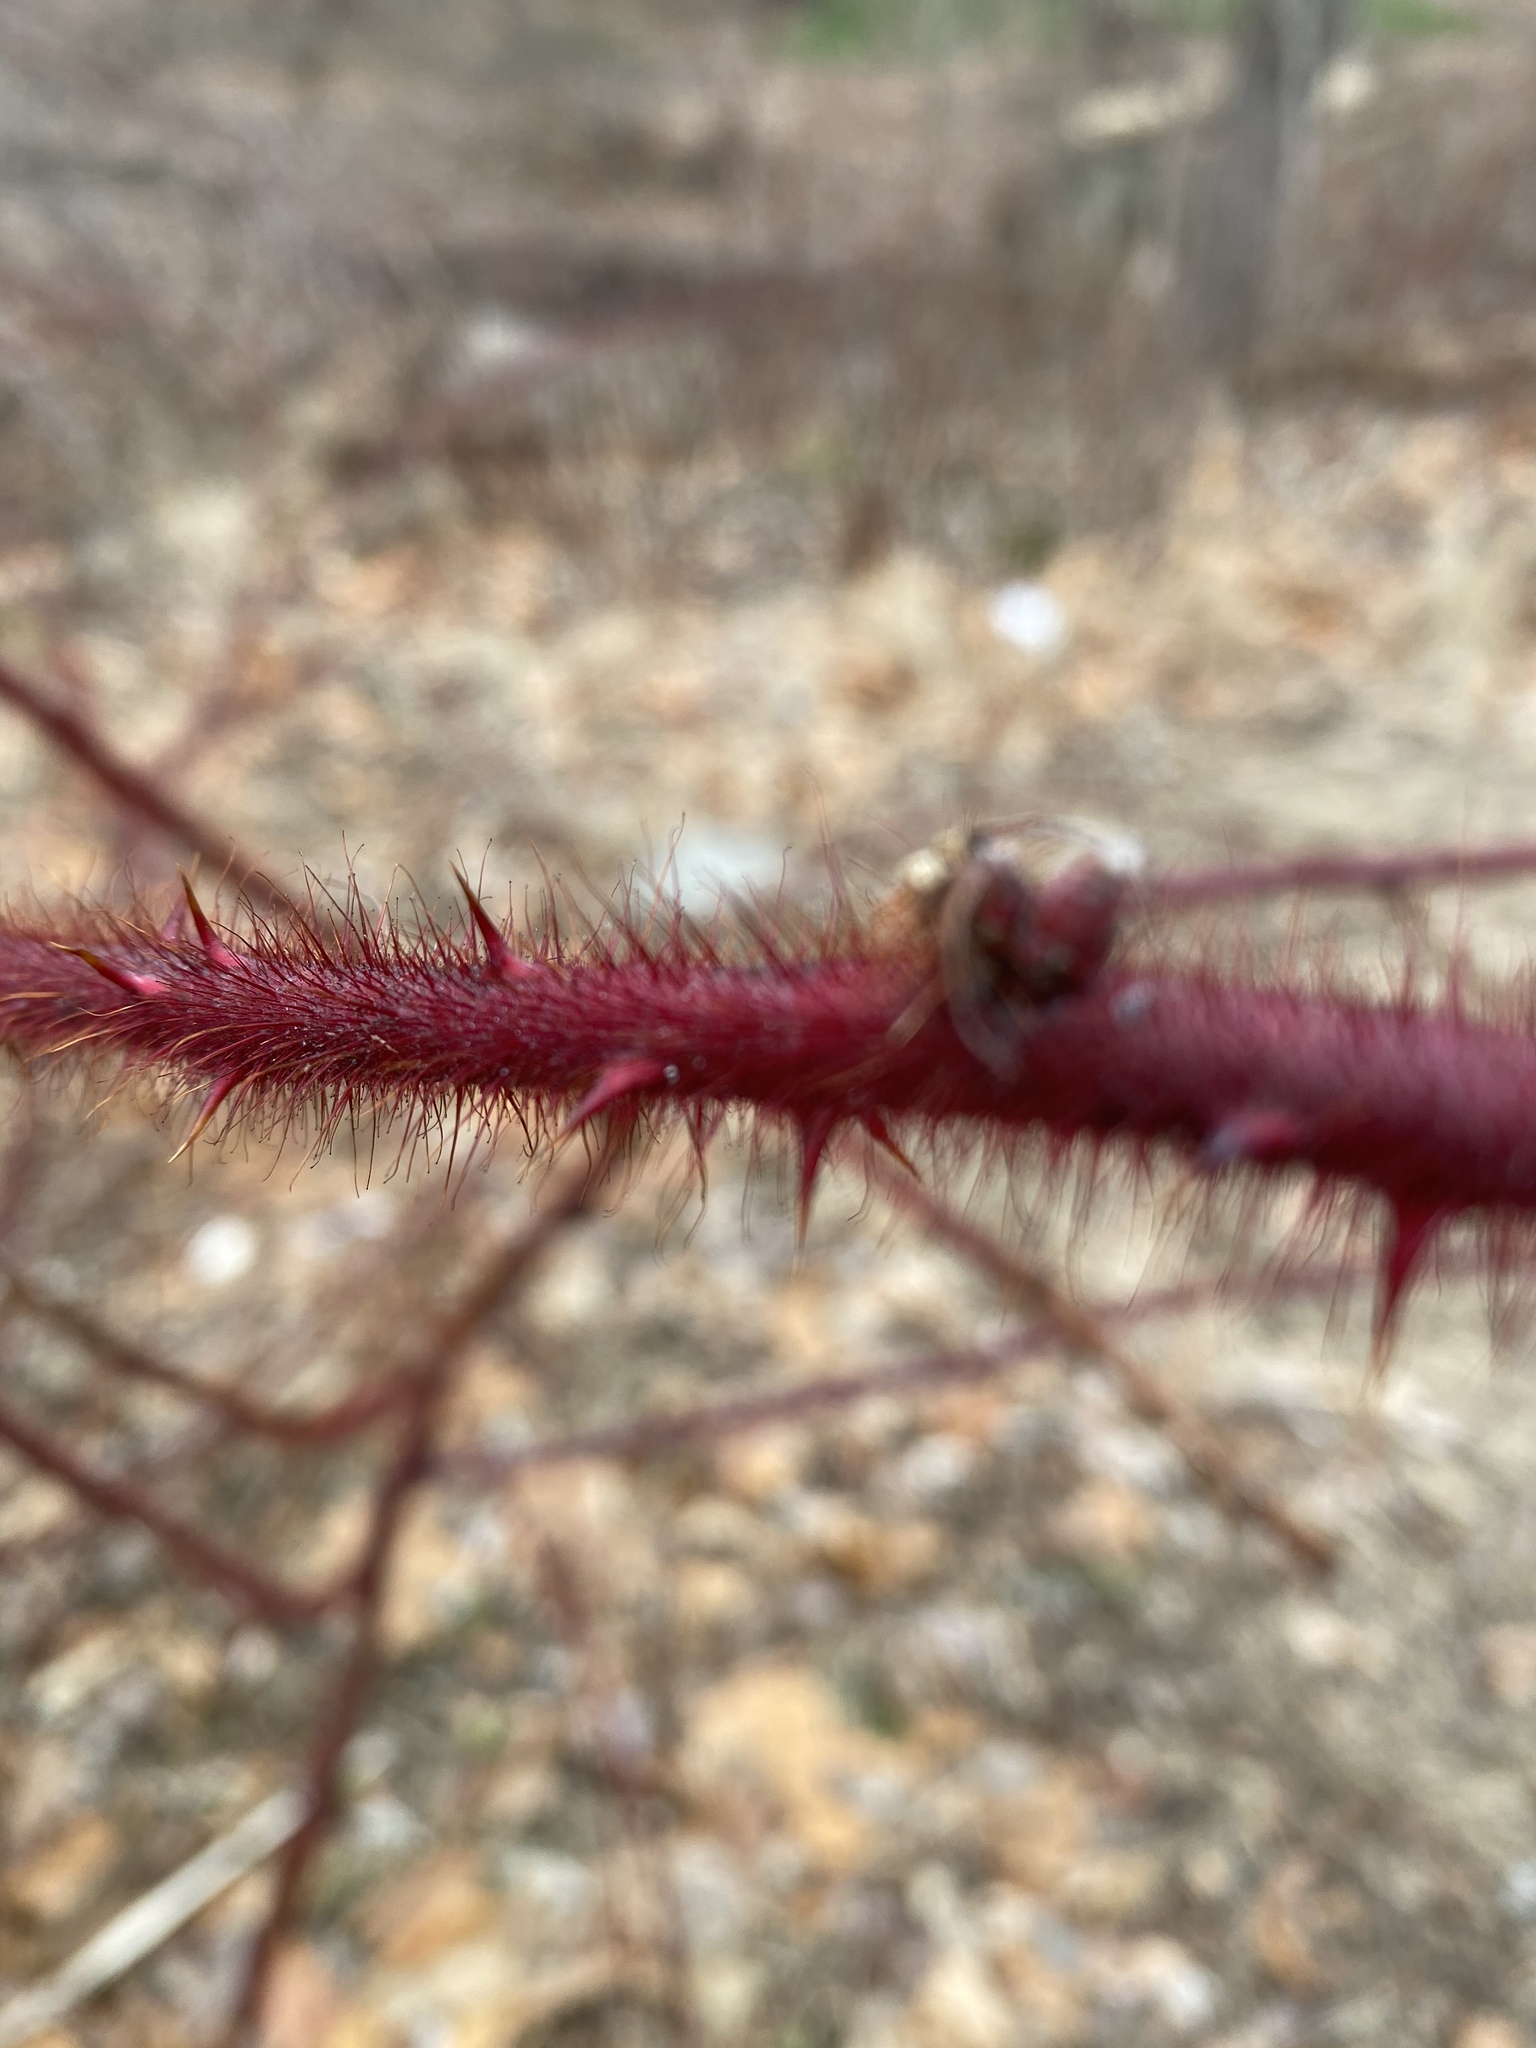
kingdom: Plantae
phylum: Tracheophyta
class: Magnoliopsida
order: Rosales
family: Rosaceae
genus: Rubus
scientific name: Rubus phoenicolasius
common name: Japanese wineberry
